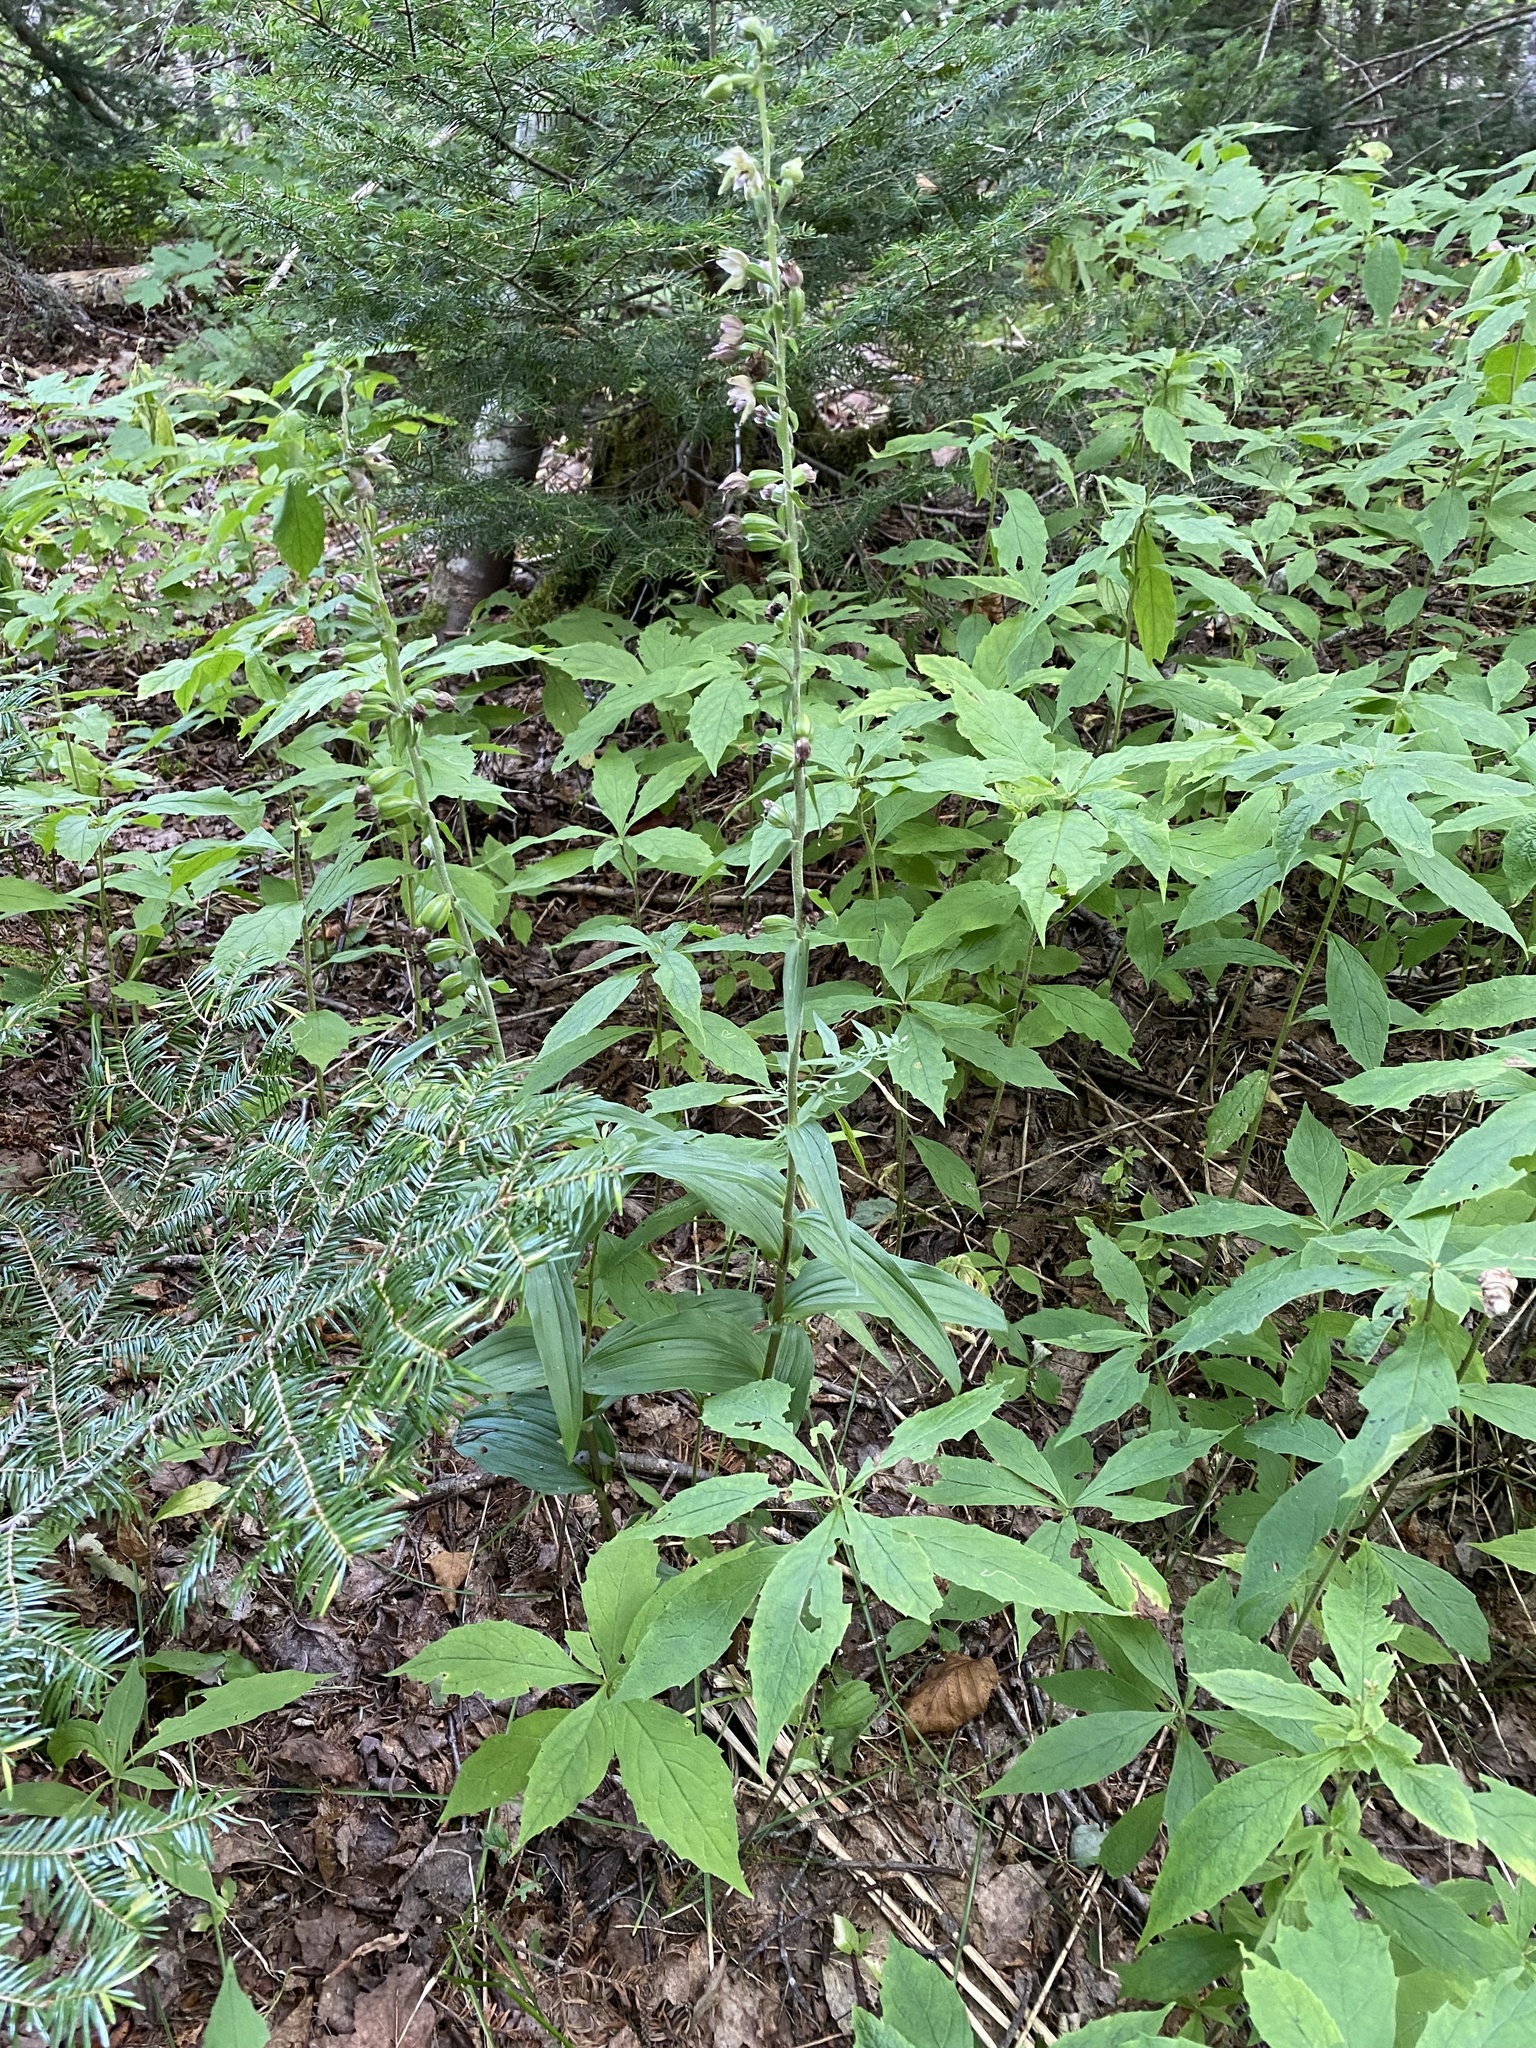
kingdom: Plantae
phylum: Tracheophyta
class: Liliopsida
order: Asparagales
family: Orchidaceae
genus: Epipactis
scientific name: Epipactis helleborine
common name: Broad-leaved helleborine
